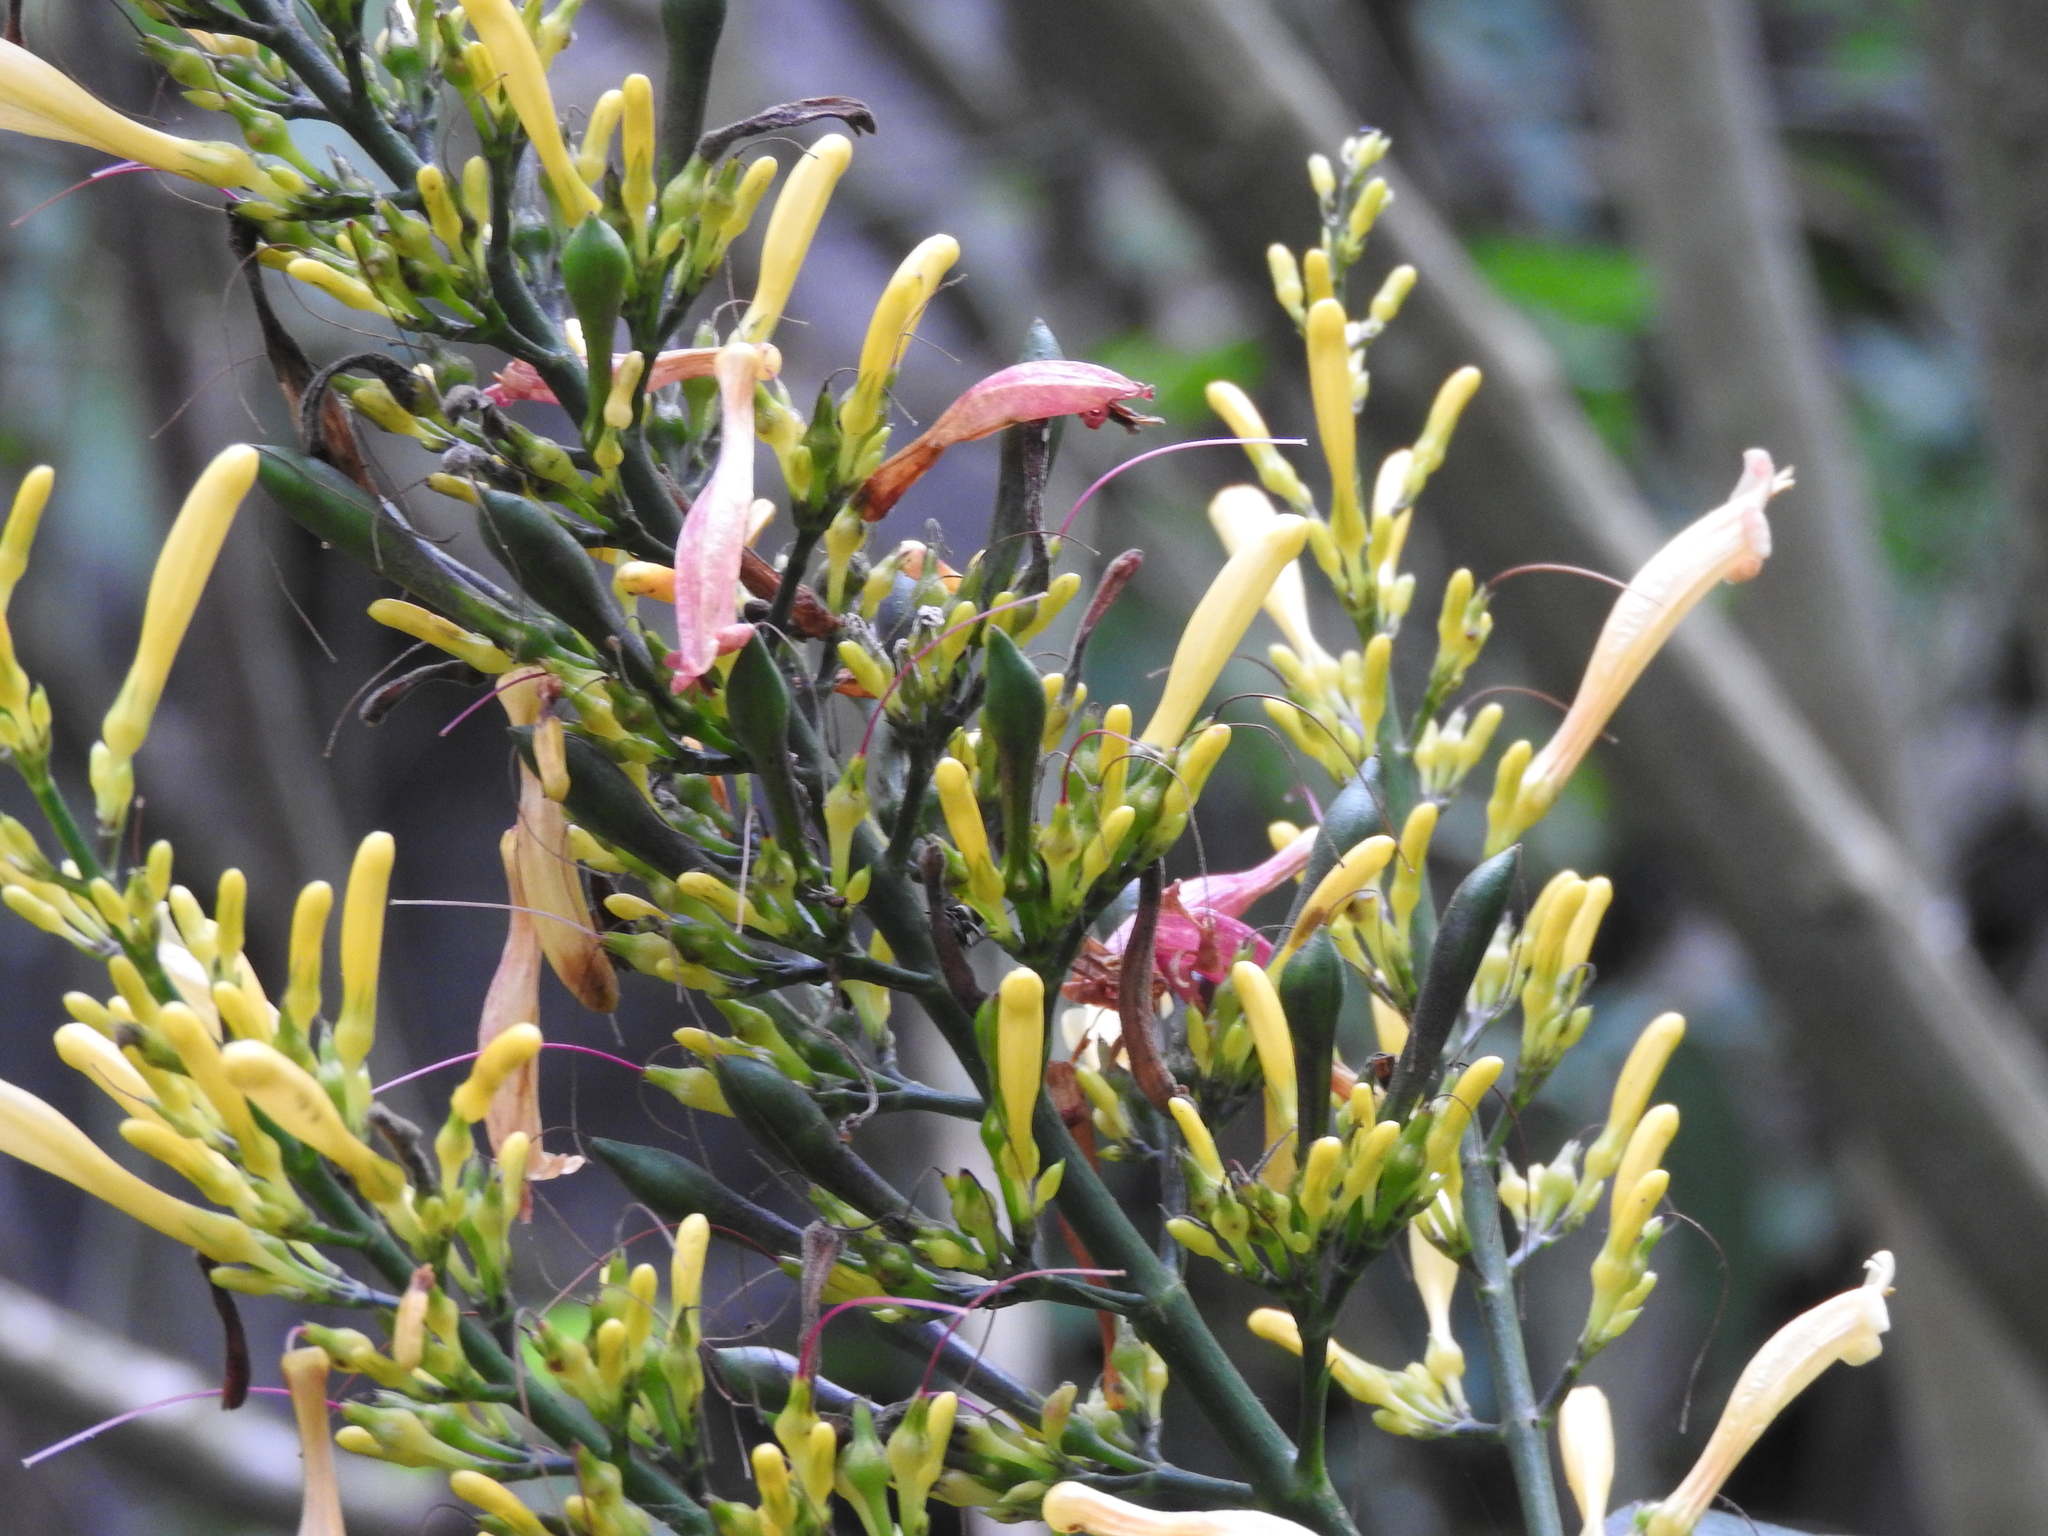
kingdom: Plantae
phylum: Tracheophyta
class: Magnoliopsida
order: Lamiales
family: Acanthaceae
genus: Odontonema
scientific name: Odontonema glabrum
